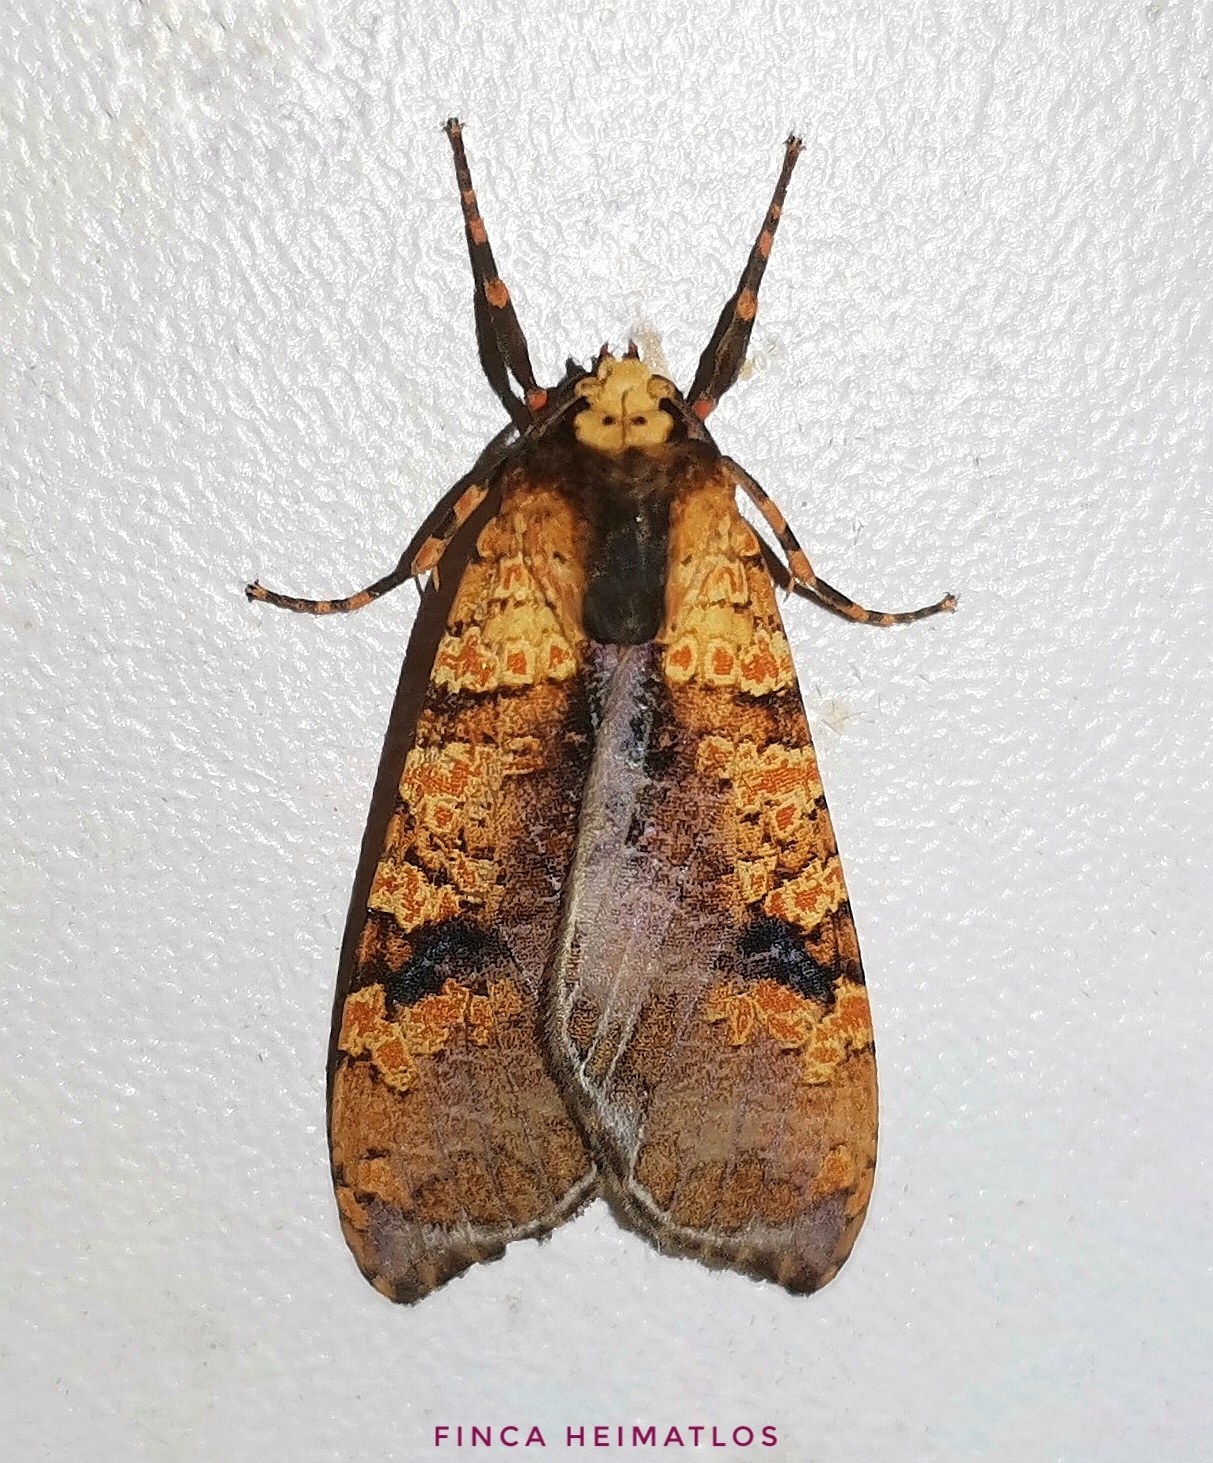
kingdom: Animalia
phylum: Arthropoda
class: Insecta
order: Lepidoptera
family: Erebidae
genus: Graphea
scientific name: Graphea marmorea
